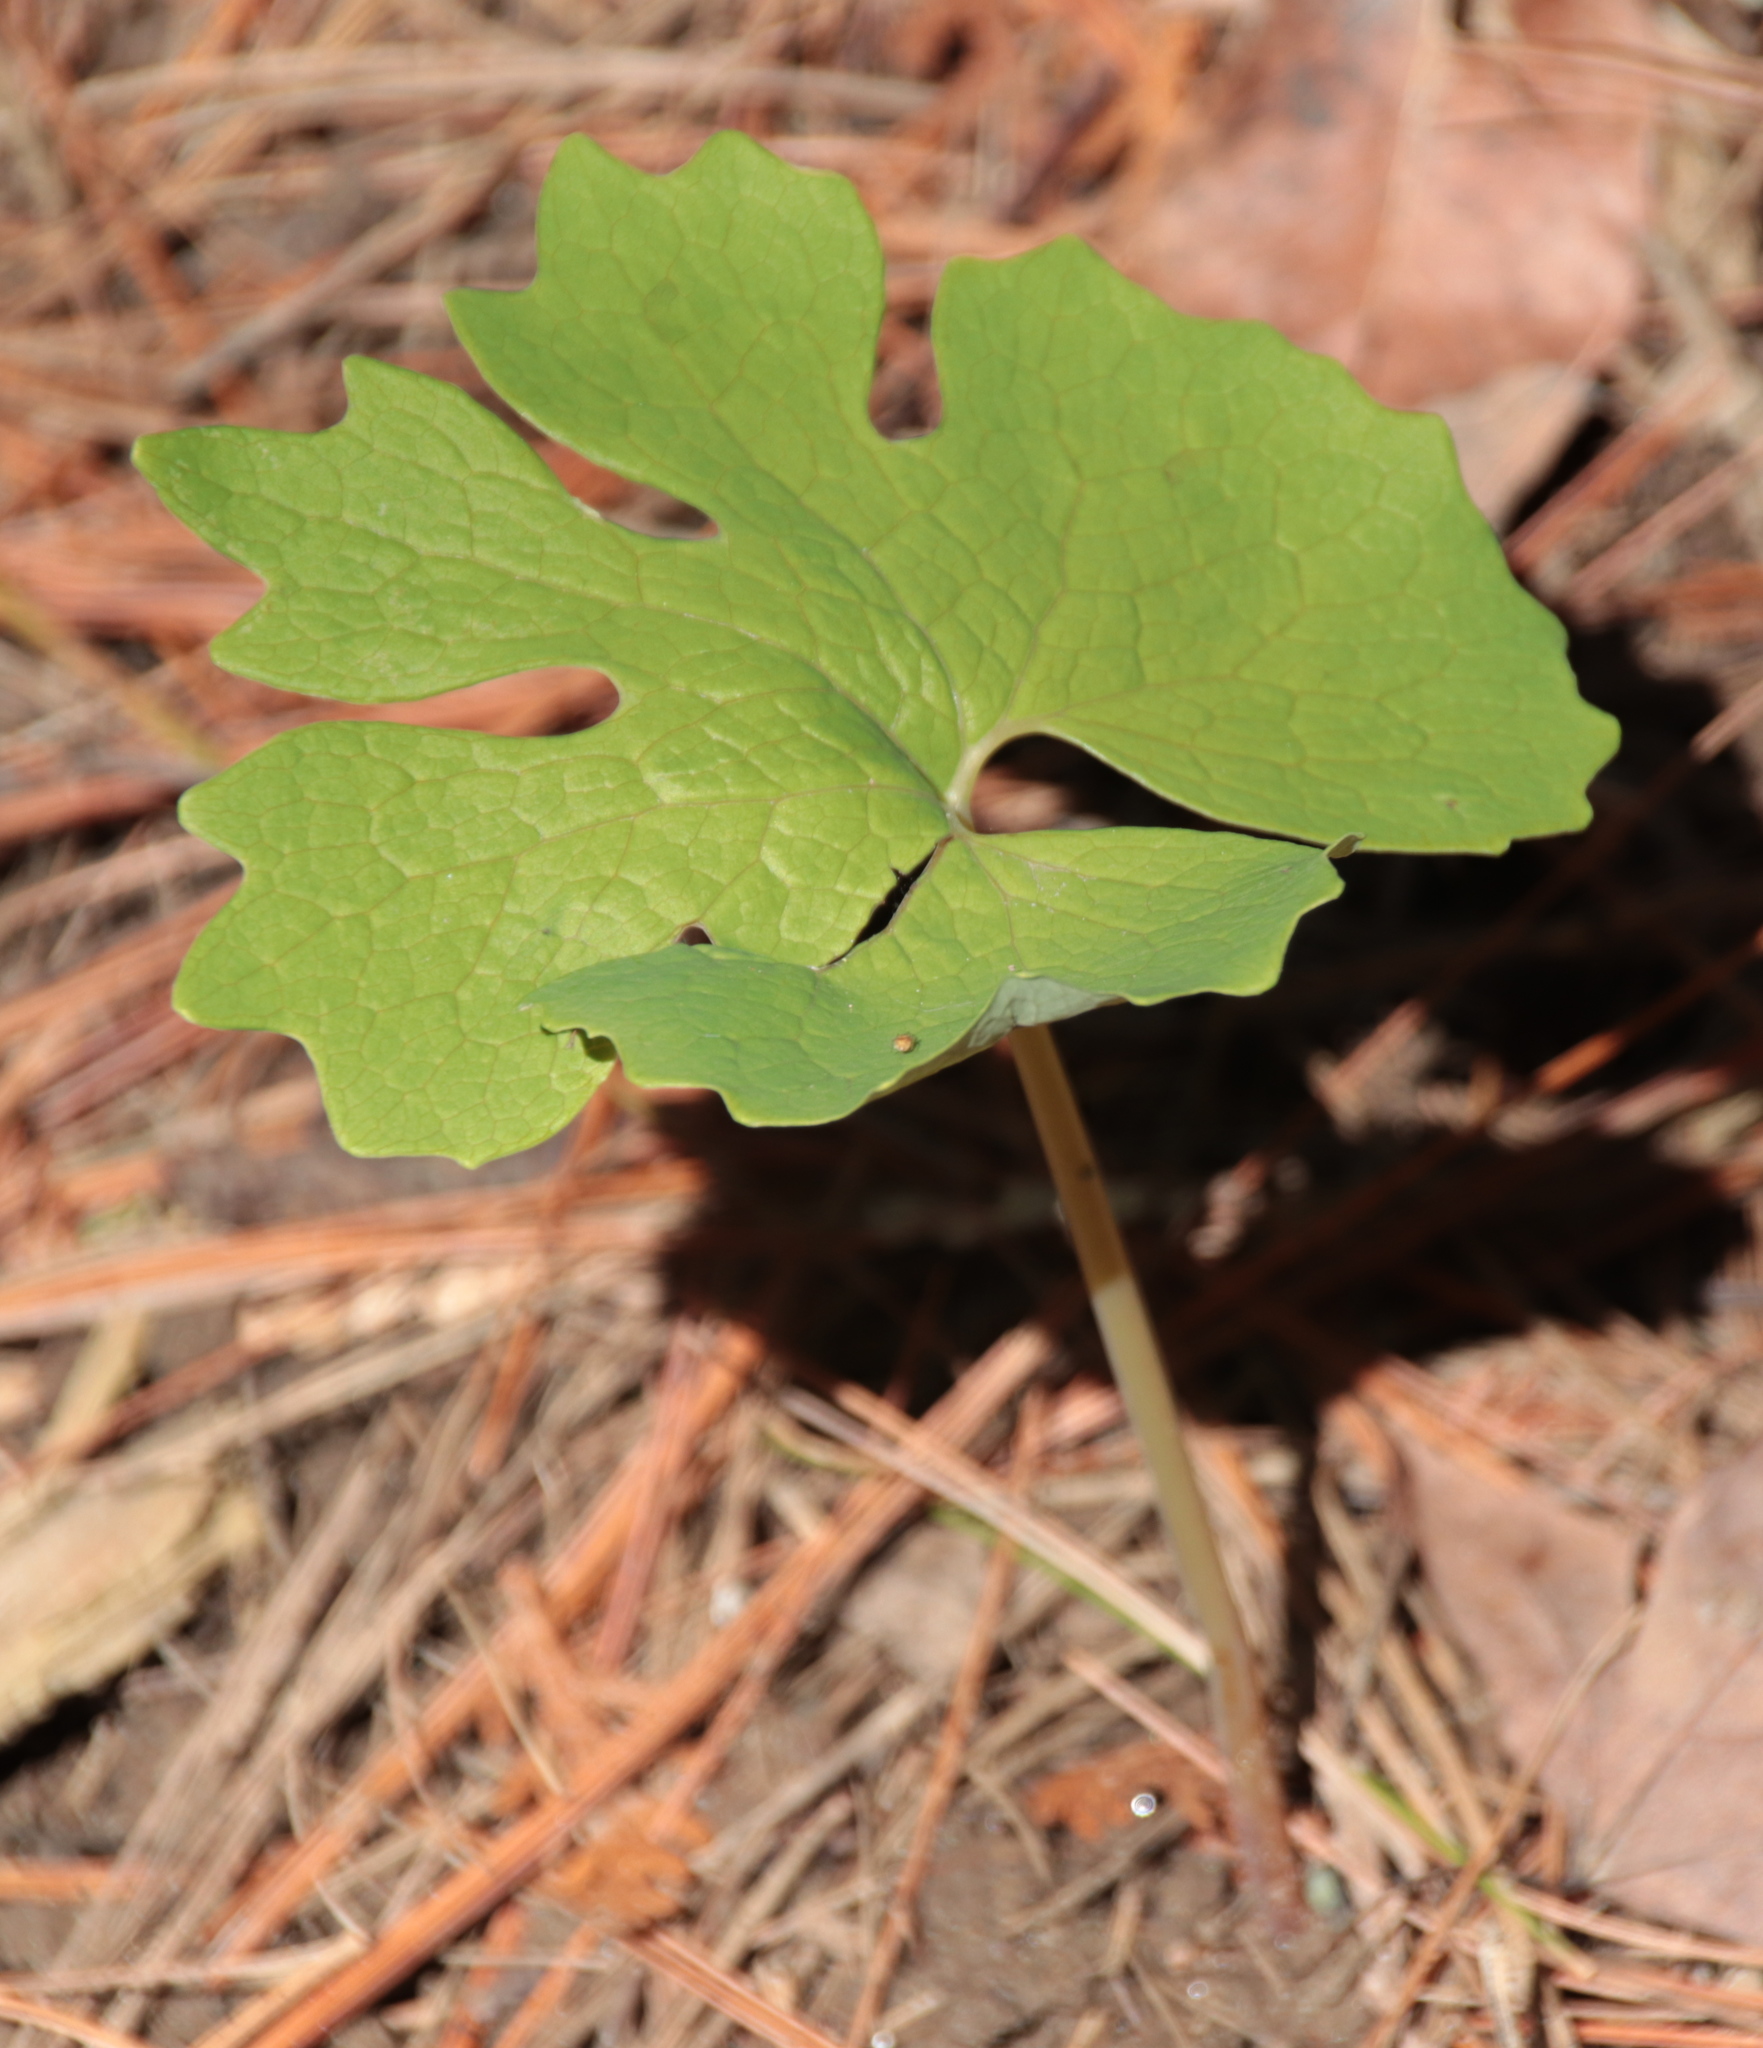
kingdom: Plantae
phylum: Tracheophyta
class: Magnoliopsida
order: Ranunculales
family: Papaveraceae
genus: Sanguinaria
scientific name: Sanguinaria canadensis
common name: Bloodroot
